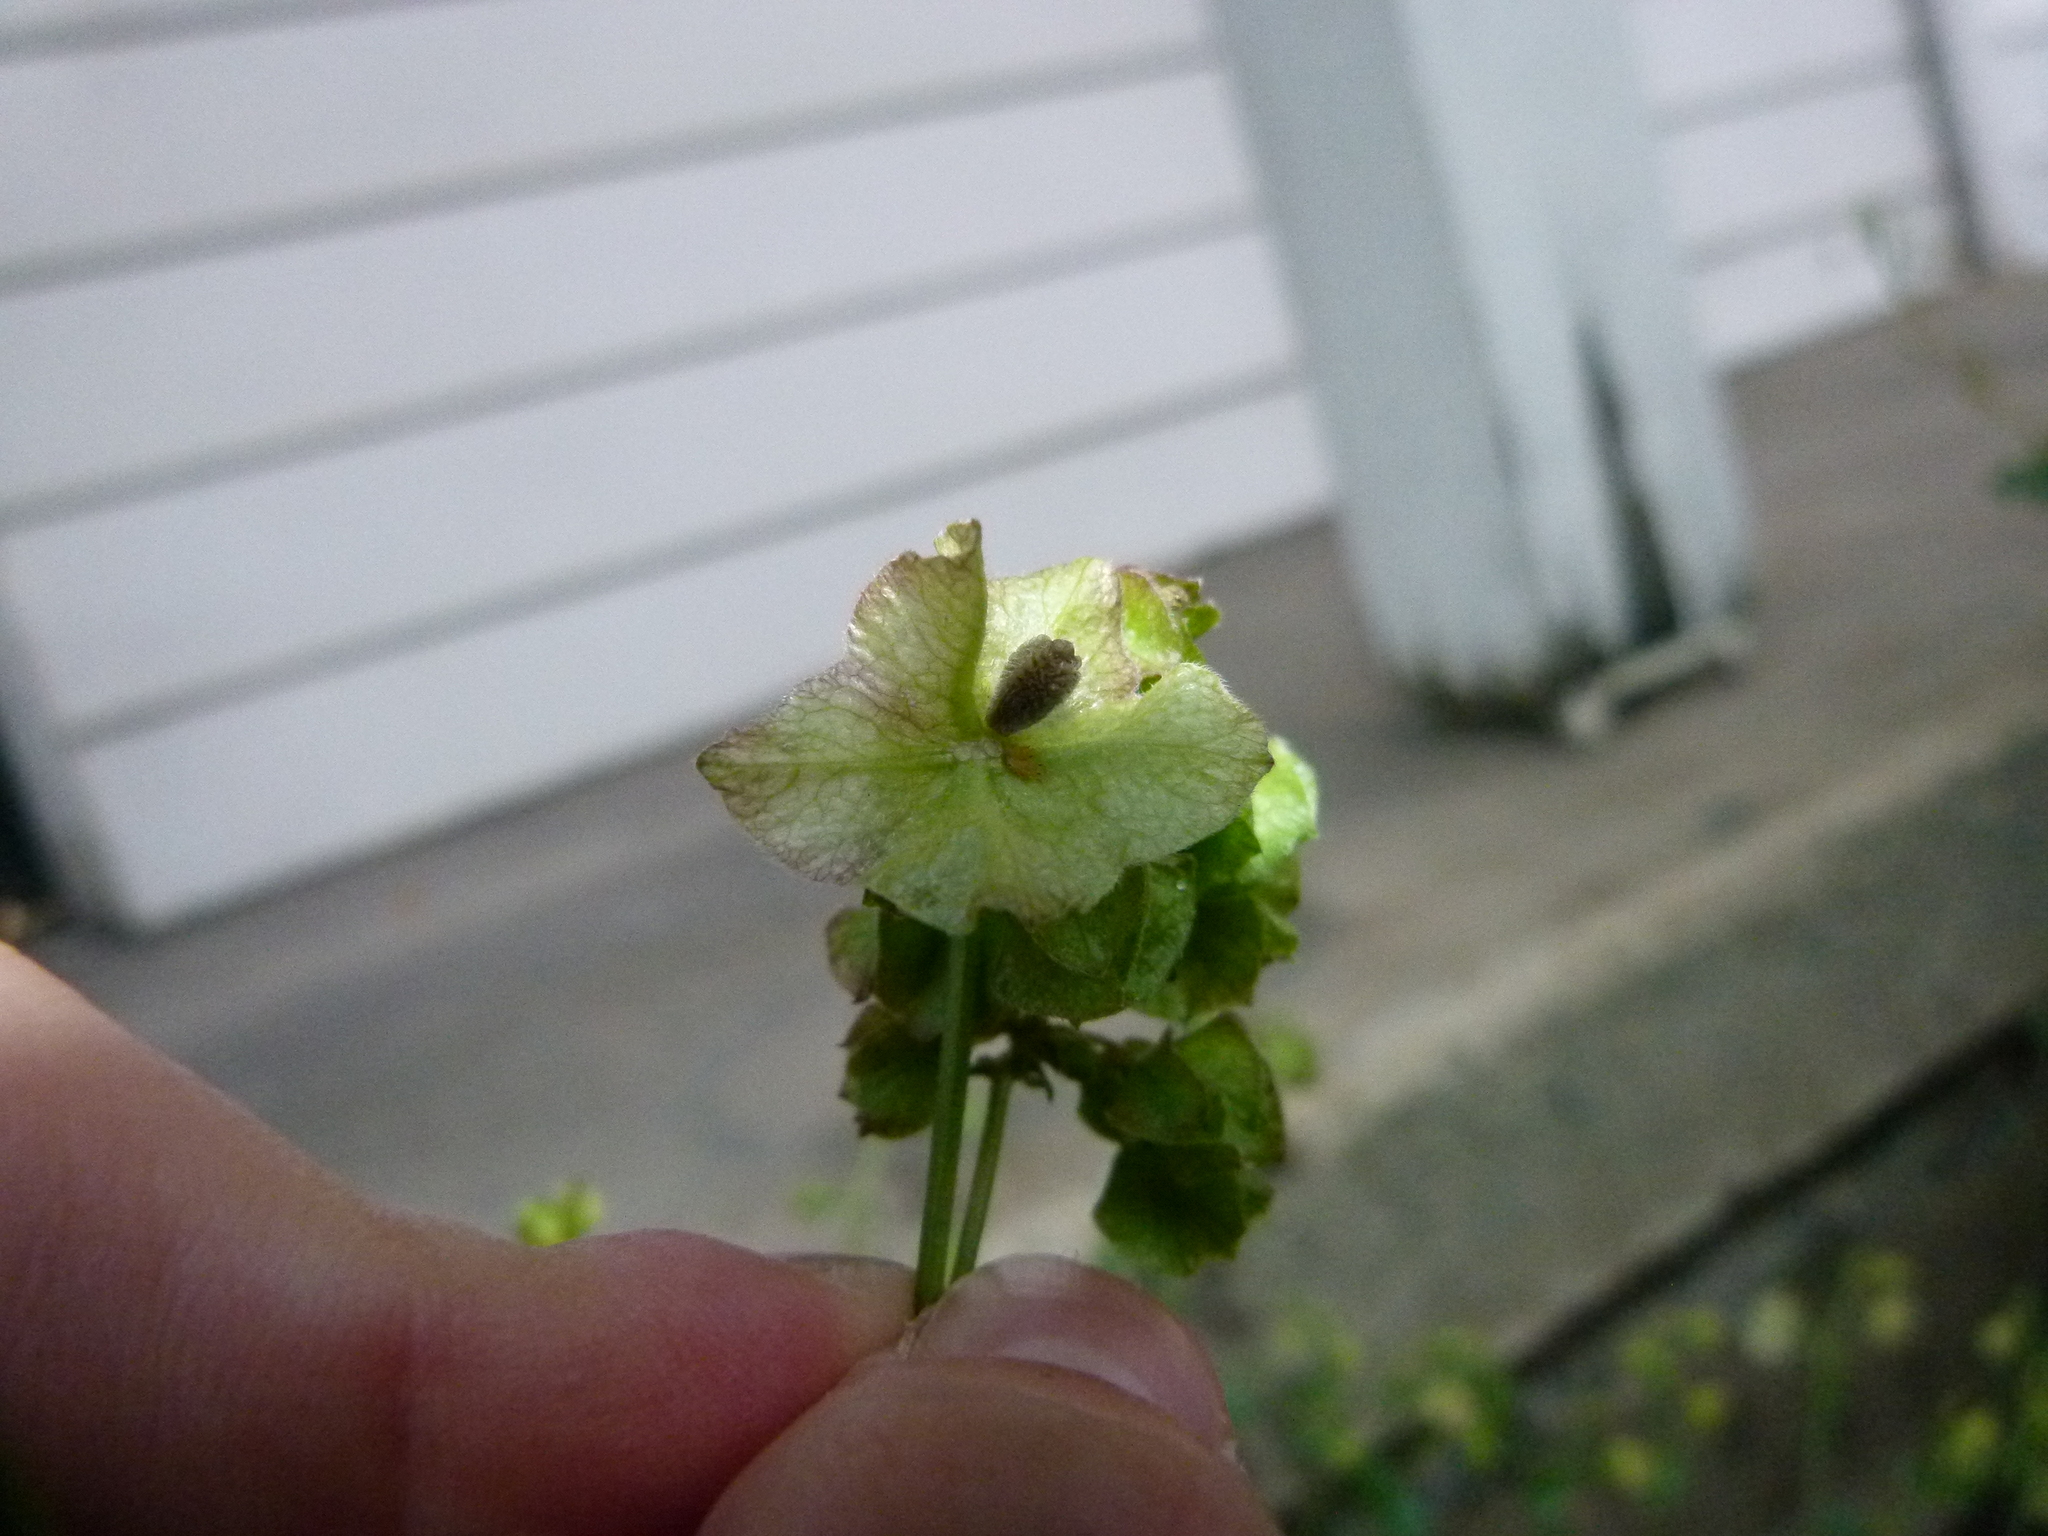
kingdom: Plantae
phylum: Tracheophyta
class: Magnoliopsida
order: Caryophyllales
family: Nyctaginaceae
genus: Mirabilis
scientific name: Mirabilis nyctaginea
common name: Umbrella wort
